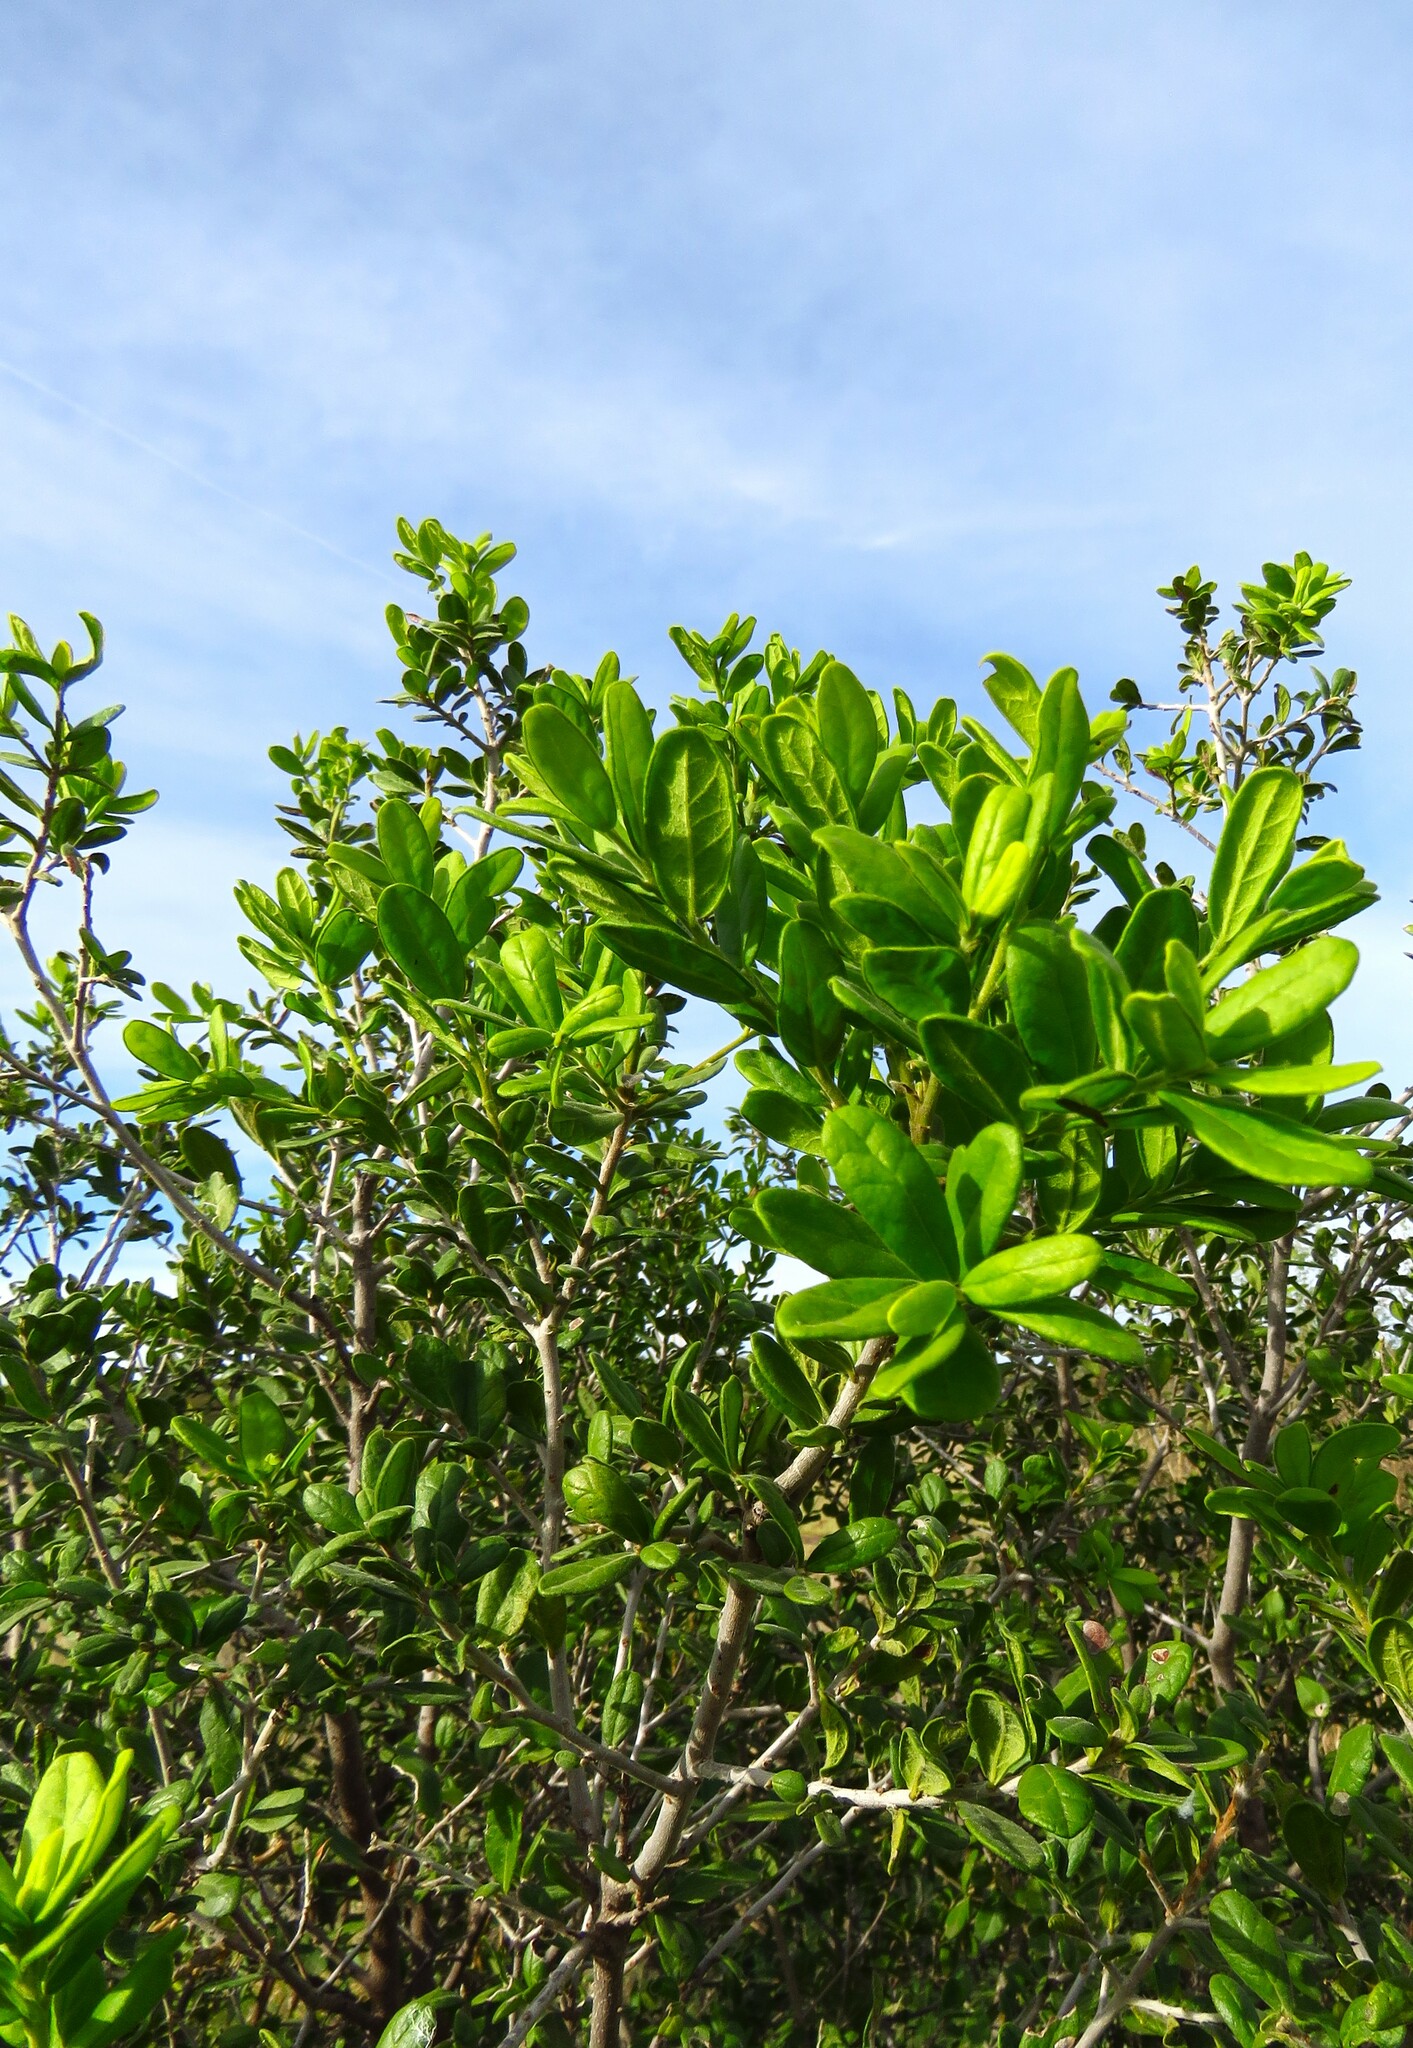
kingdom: Plantae
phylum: Tracheophyta
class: Magnoliopsida
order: Ericales
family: Ebenaceae
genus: Diospyros
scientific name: Diospyros texana
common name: Texas persimmon
